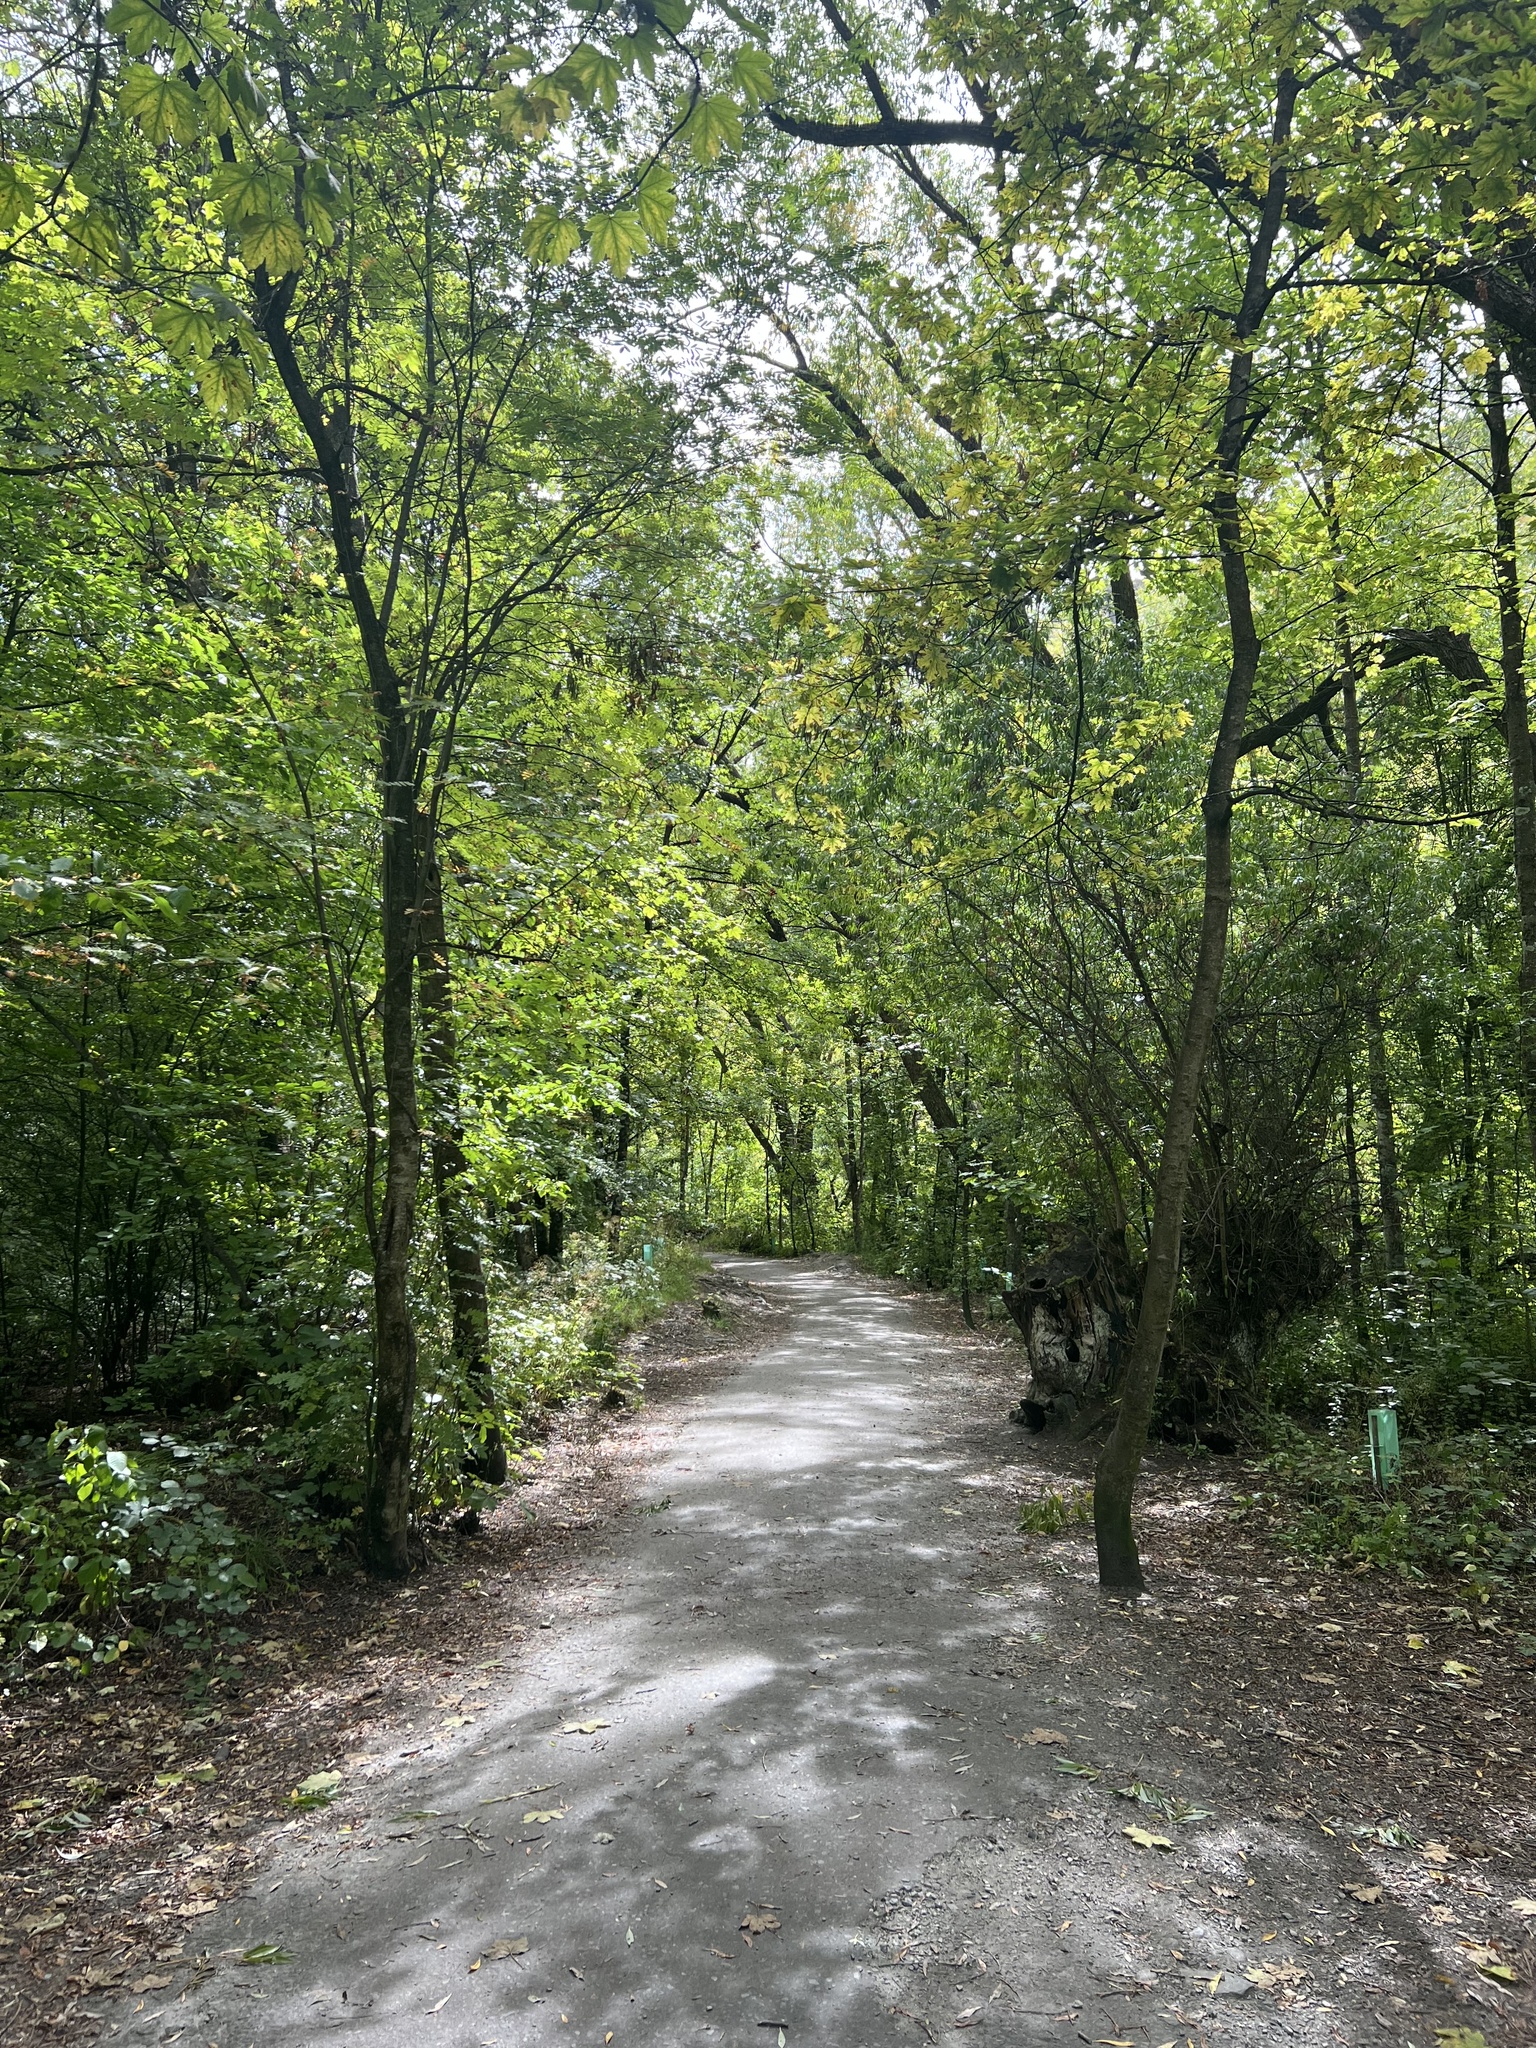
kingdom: Plantae
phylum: Tracheophyta
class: Magnoliopsida
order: Rosales
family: Rosaceae
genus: Sorbus
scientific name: Sorbus aucuparia
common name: Rowan
